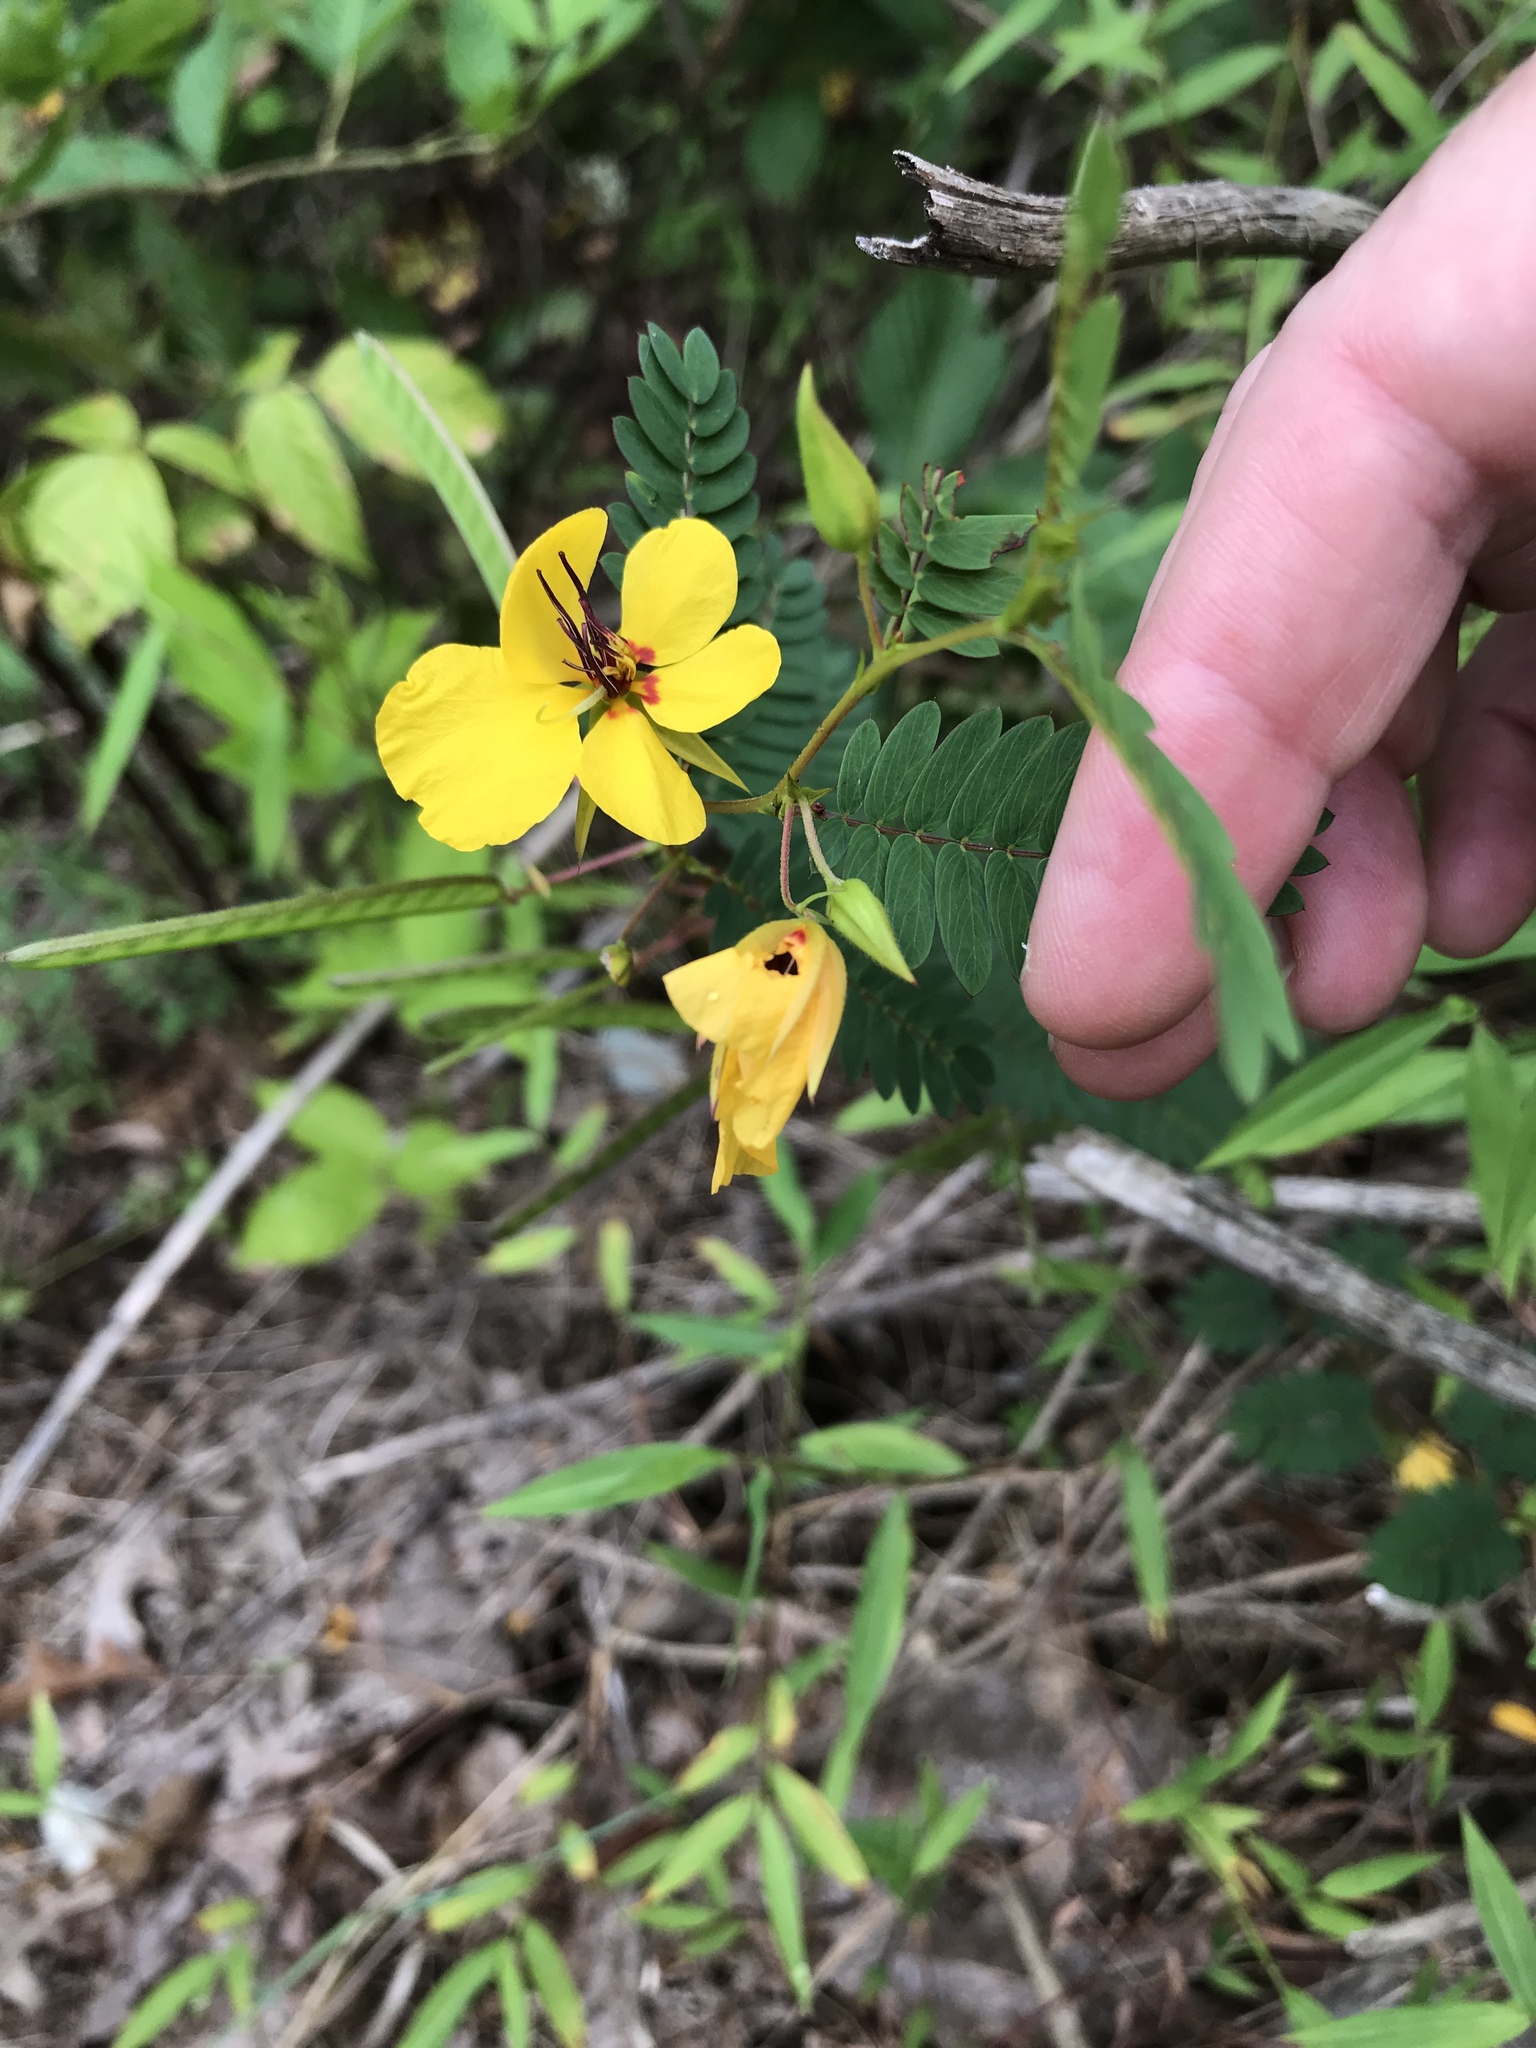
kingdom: Plantae
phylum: Tracheophyta
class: Magnoliopsida
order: Fabales
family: Fabaceae
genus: Chamaecrista
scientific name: Chamaecrista fasciculata
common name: Golden cassia
